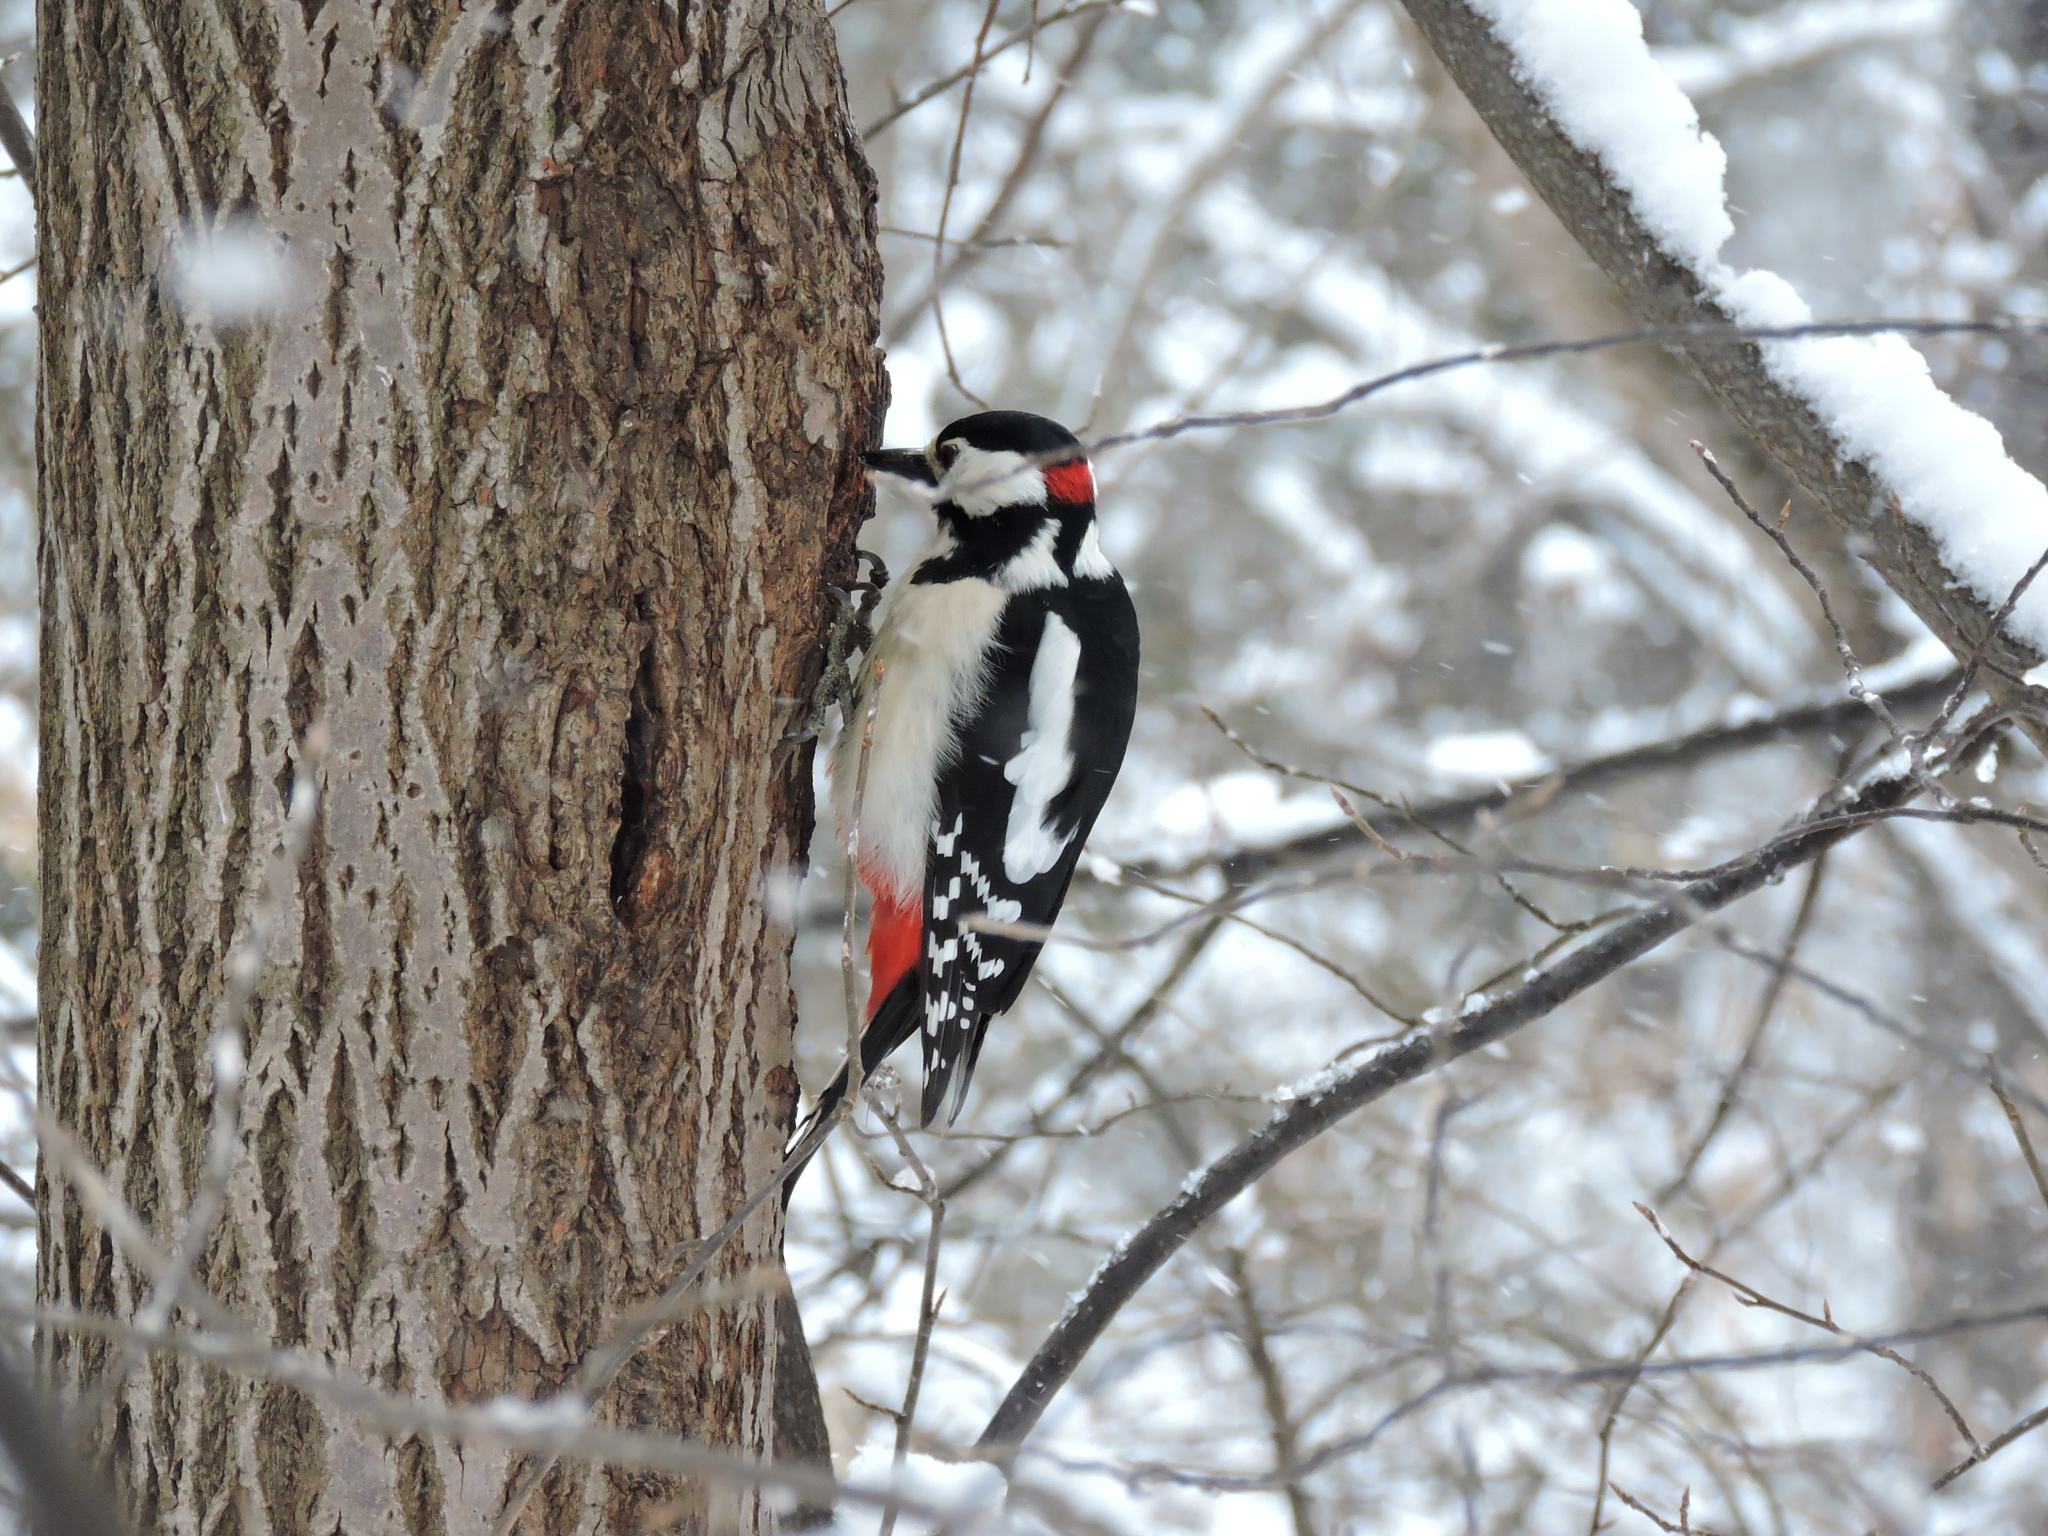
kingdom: Animalia
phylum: Chordata
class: Aves
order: Piciformes
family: Picidae
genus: Dendrocopos
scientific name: Dendrocopos major
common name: Great spotted woodpecker
